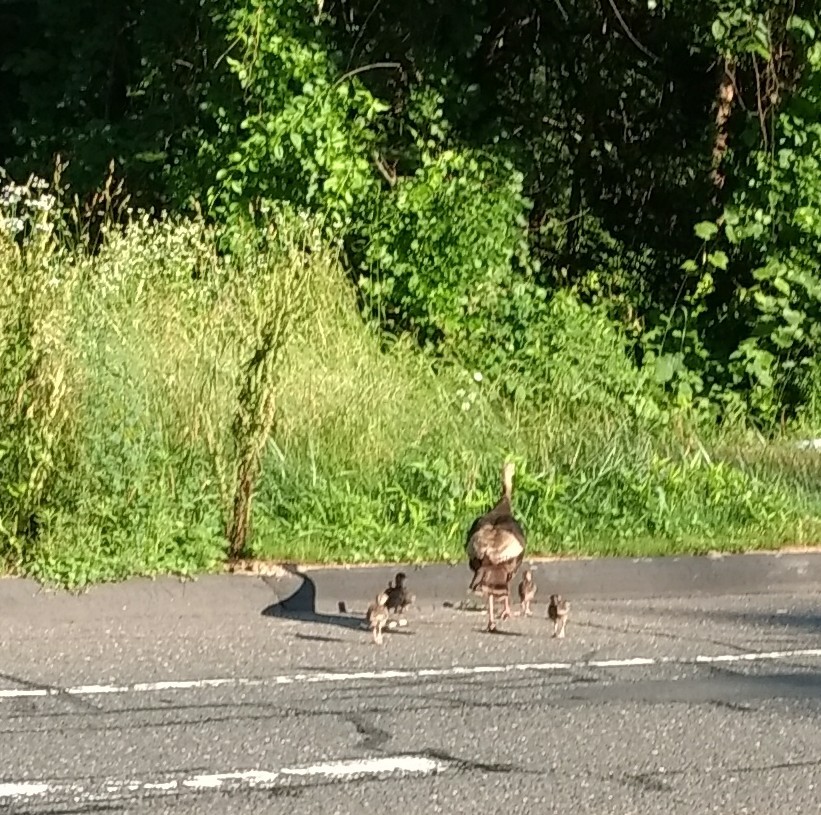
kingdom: Animalia
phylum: Chordata
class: Aves
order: Galliformes
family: Phasianidae
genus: Meleagris
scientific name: Meleagris gallopavo
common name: Wild turkey
